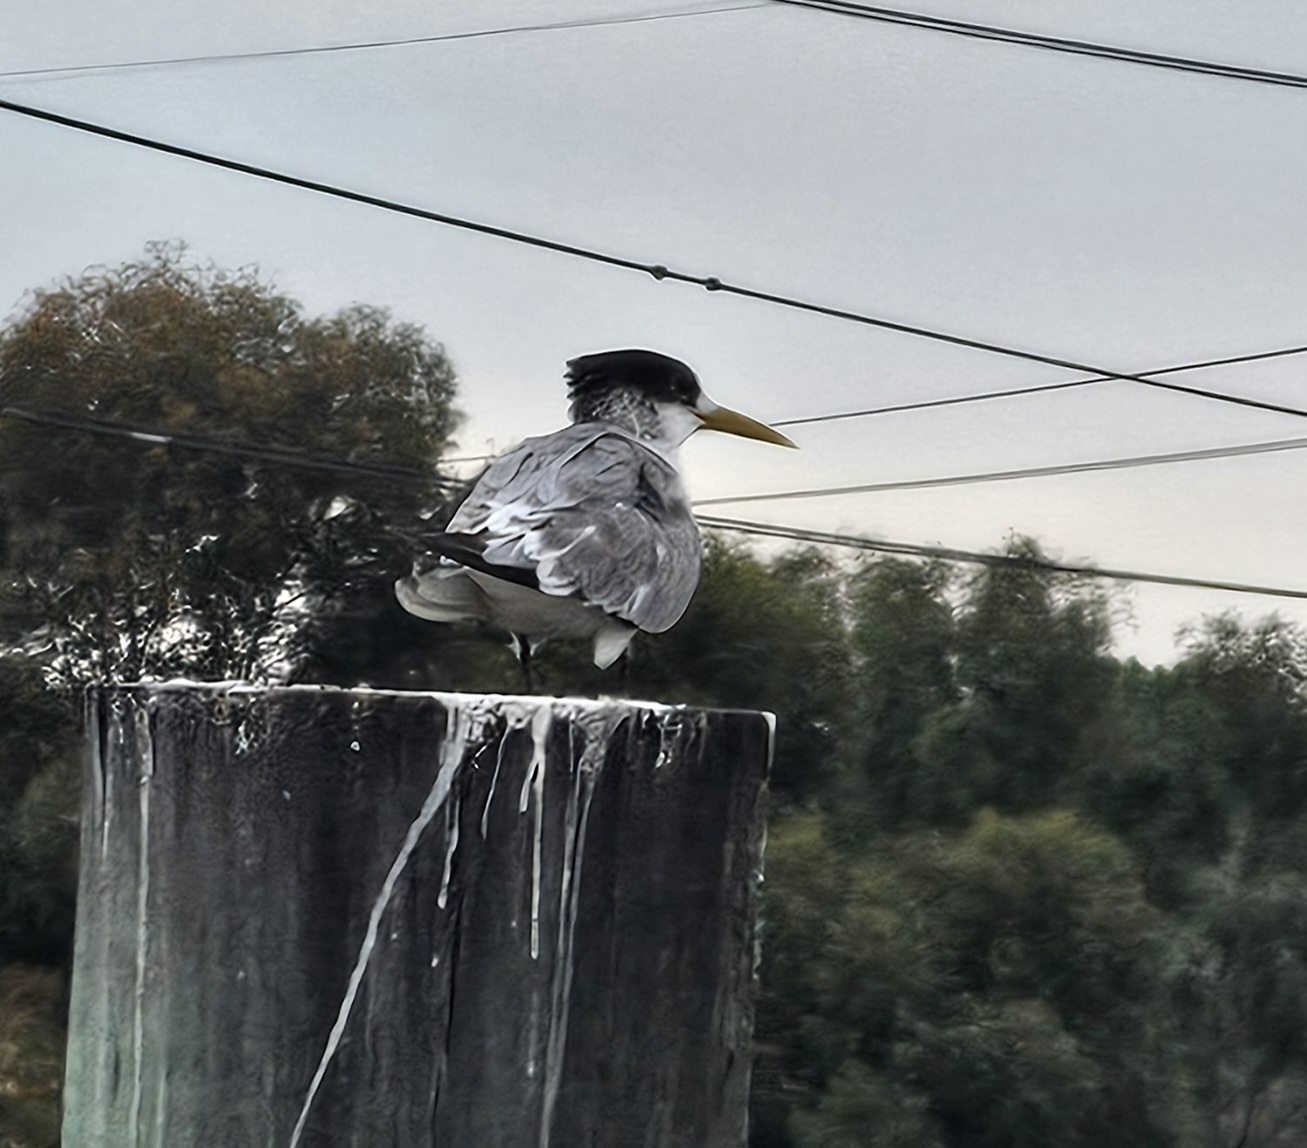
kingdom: Animalia
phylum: Chordata
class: Aves
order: Charadriiformes
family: Laridae
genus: Thalasseus
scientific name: Thalasseus bergii
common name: Greater crested tern
